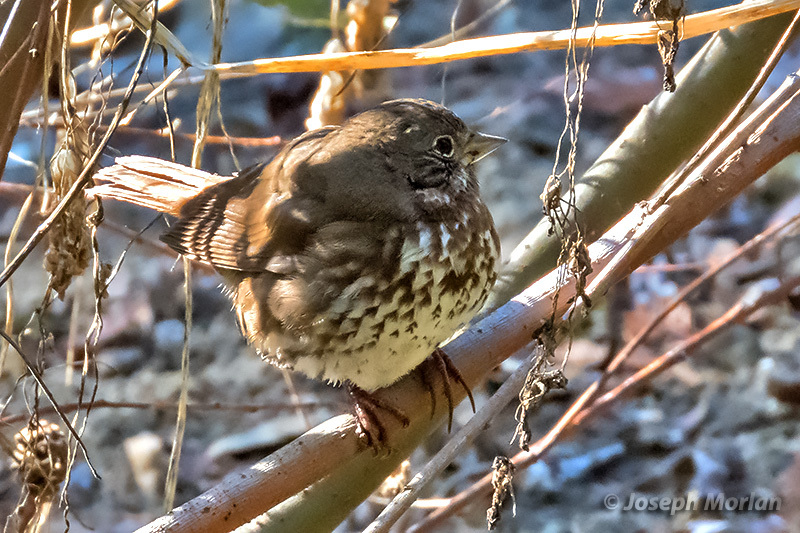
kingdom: Animalia
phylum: Chordata
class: Aves
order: Passeriformes
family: Passerellidae
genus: Passerella
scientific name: Passerella iliaca
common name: Fox sparrow
